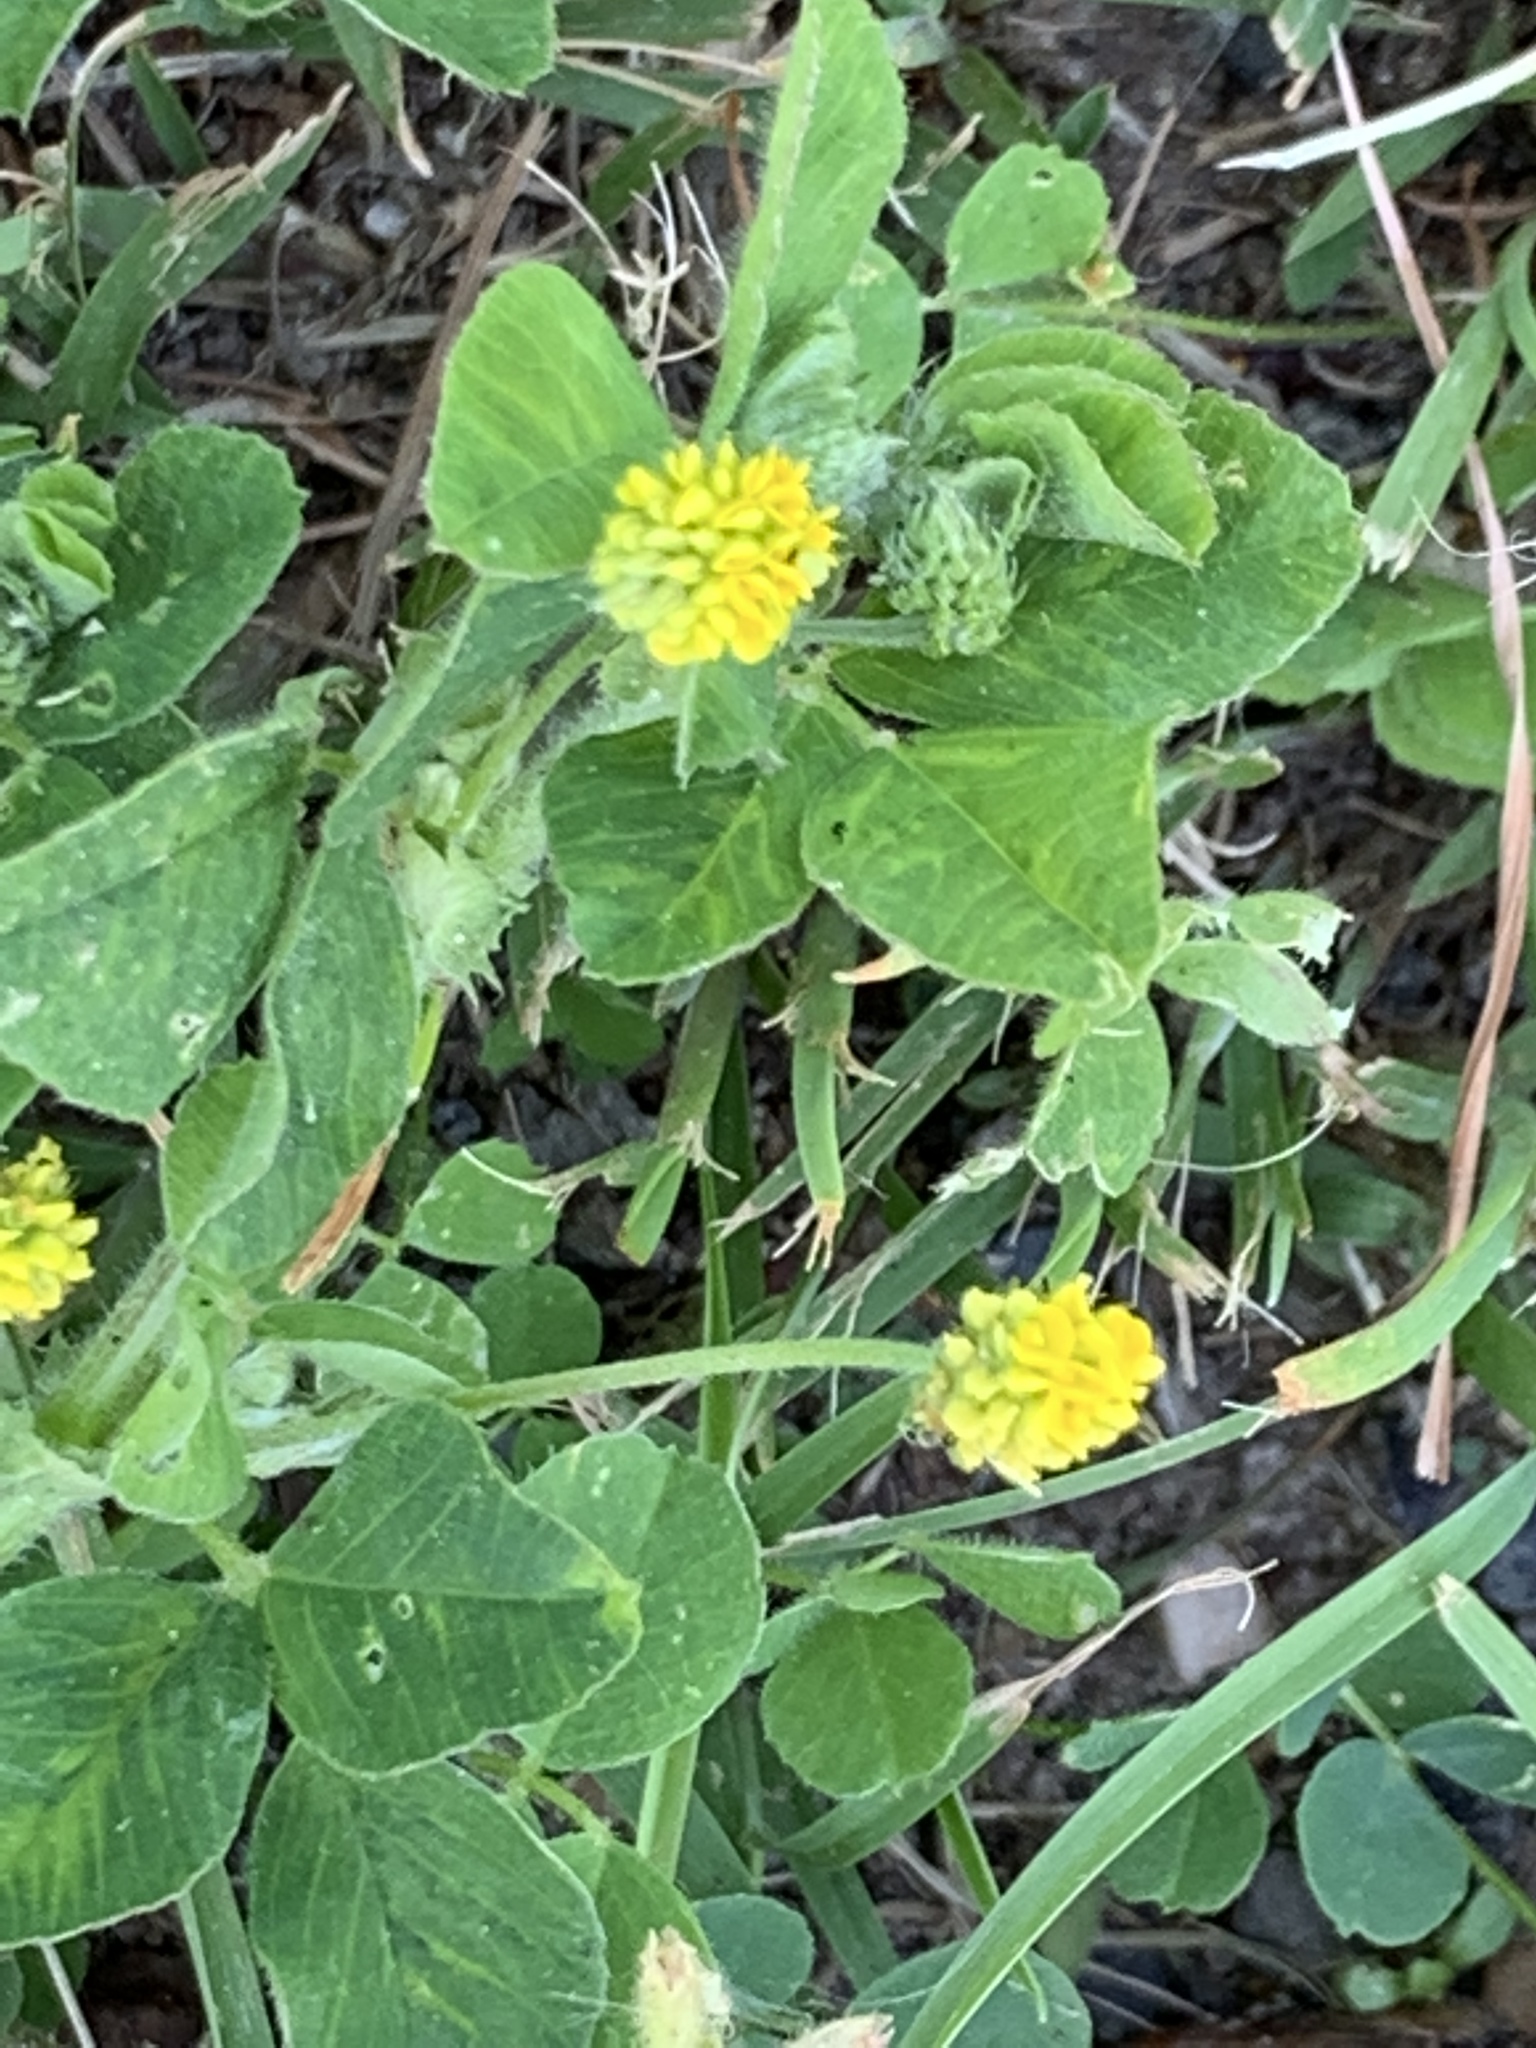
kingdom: Plantae
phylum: Tracheophyta
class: Magnoliopsida
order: Fabales
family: Fabaceae
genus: Medicago
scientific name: Medicago lupulina
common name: Black medick
